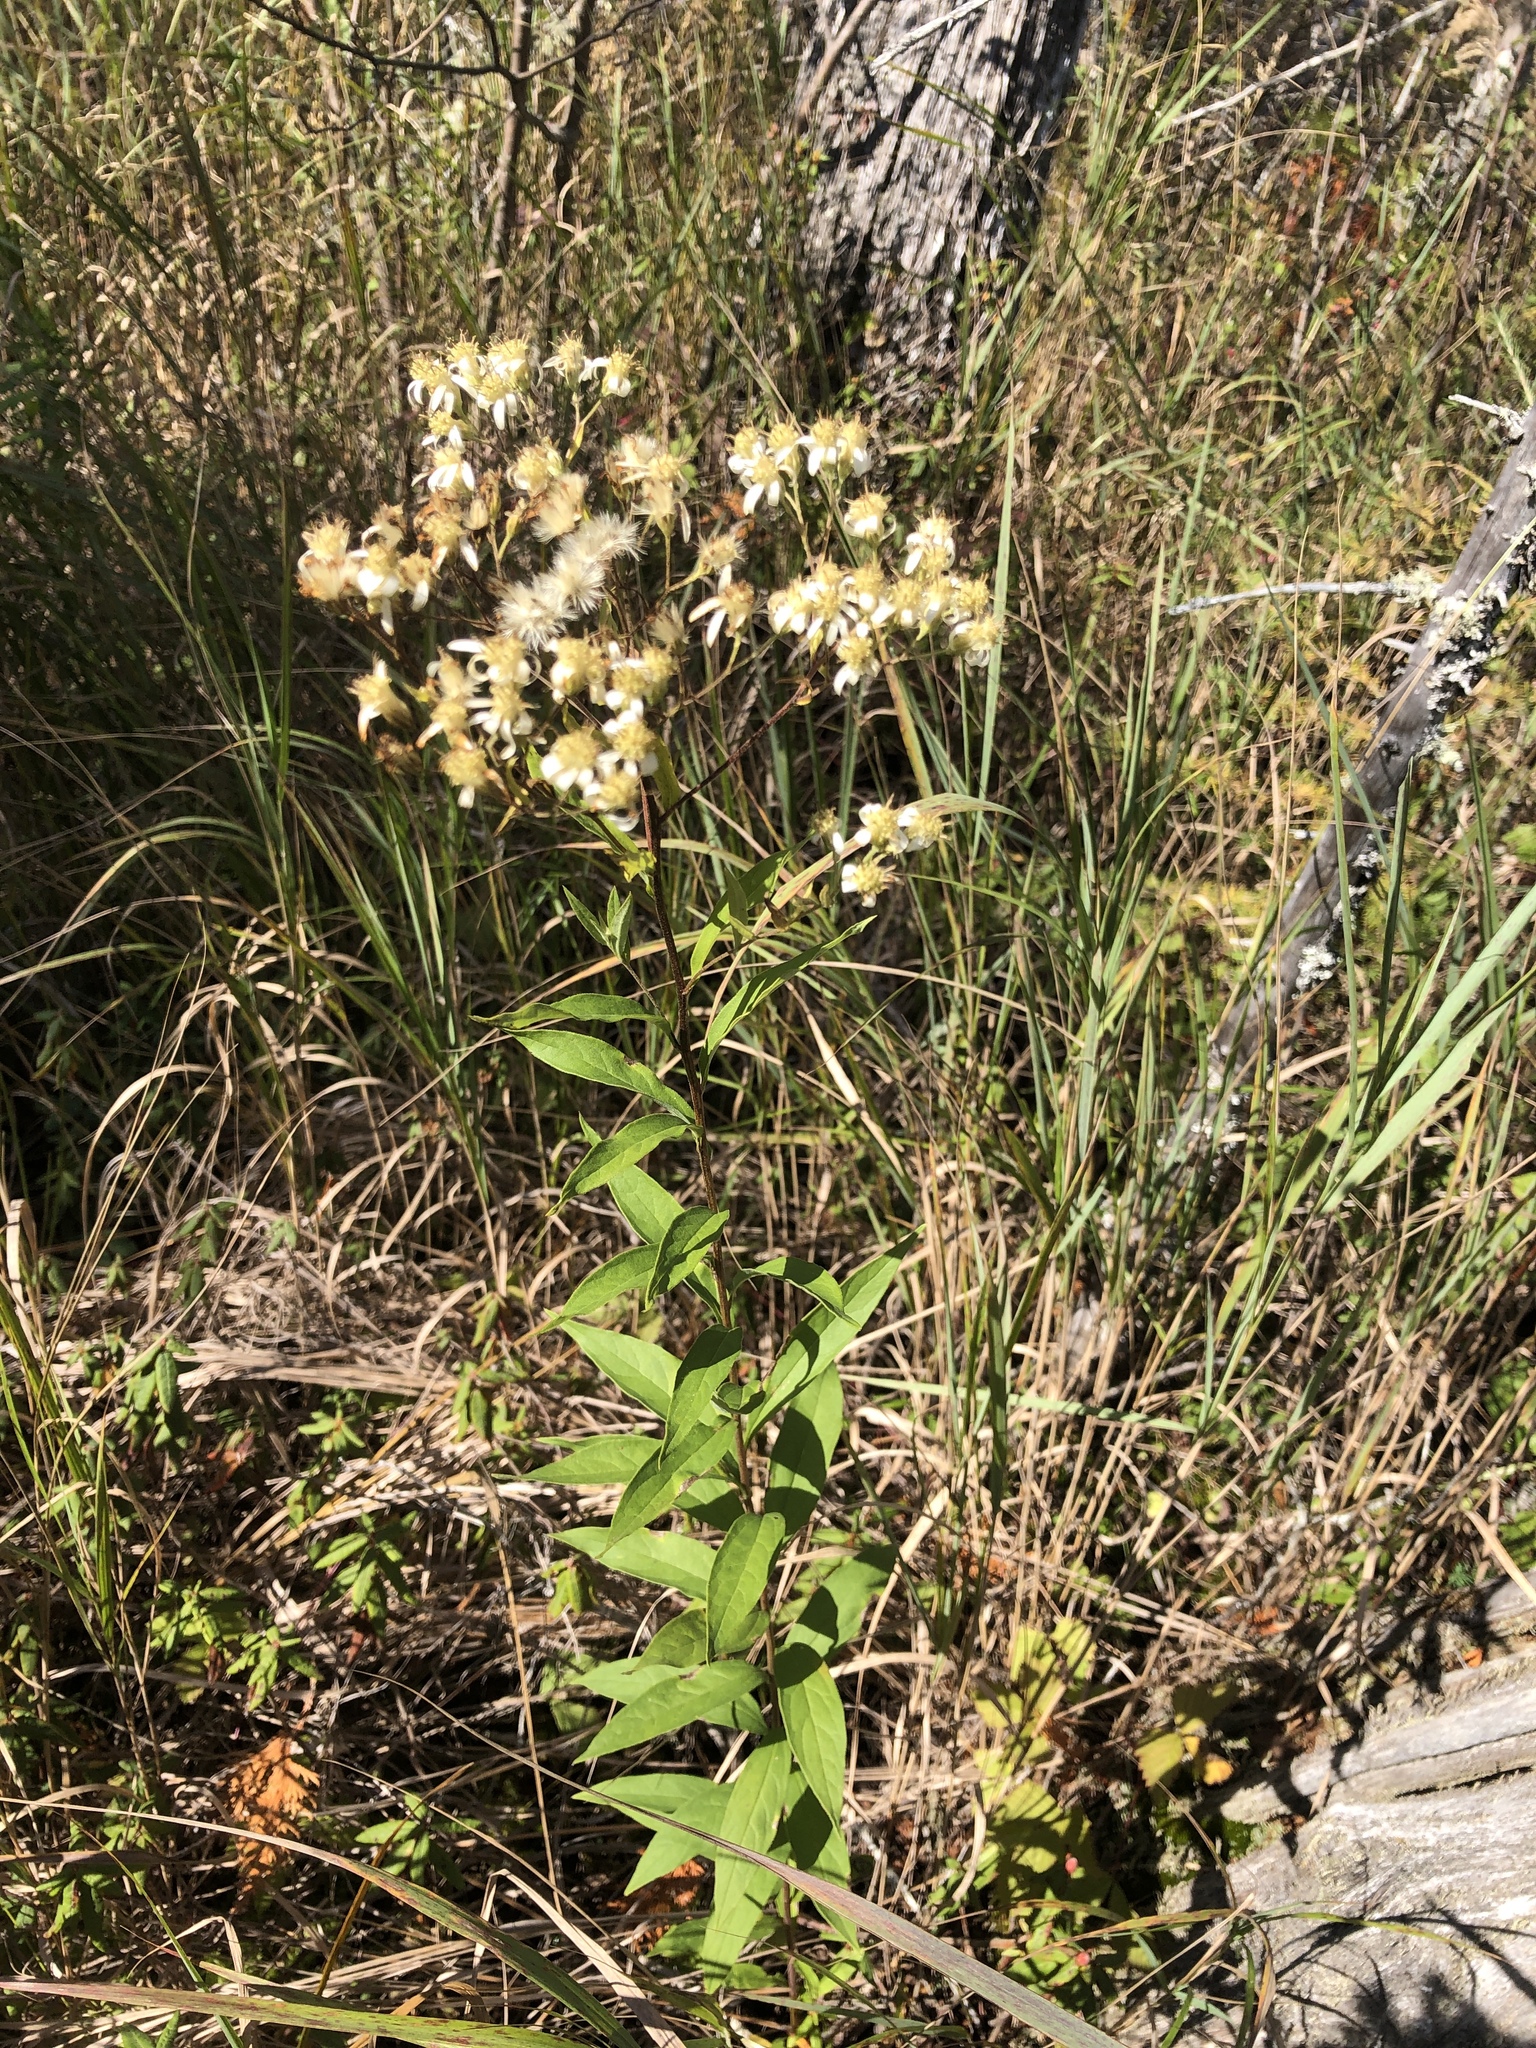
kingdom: Plantae
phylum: Tracheophyta
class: Magnoliopsida
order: Asterales
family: Asteraceae
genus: Doellingeria
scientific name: Doellingeria umbellata
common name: Flat-top white aster
